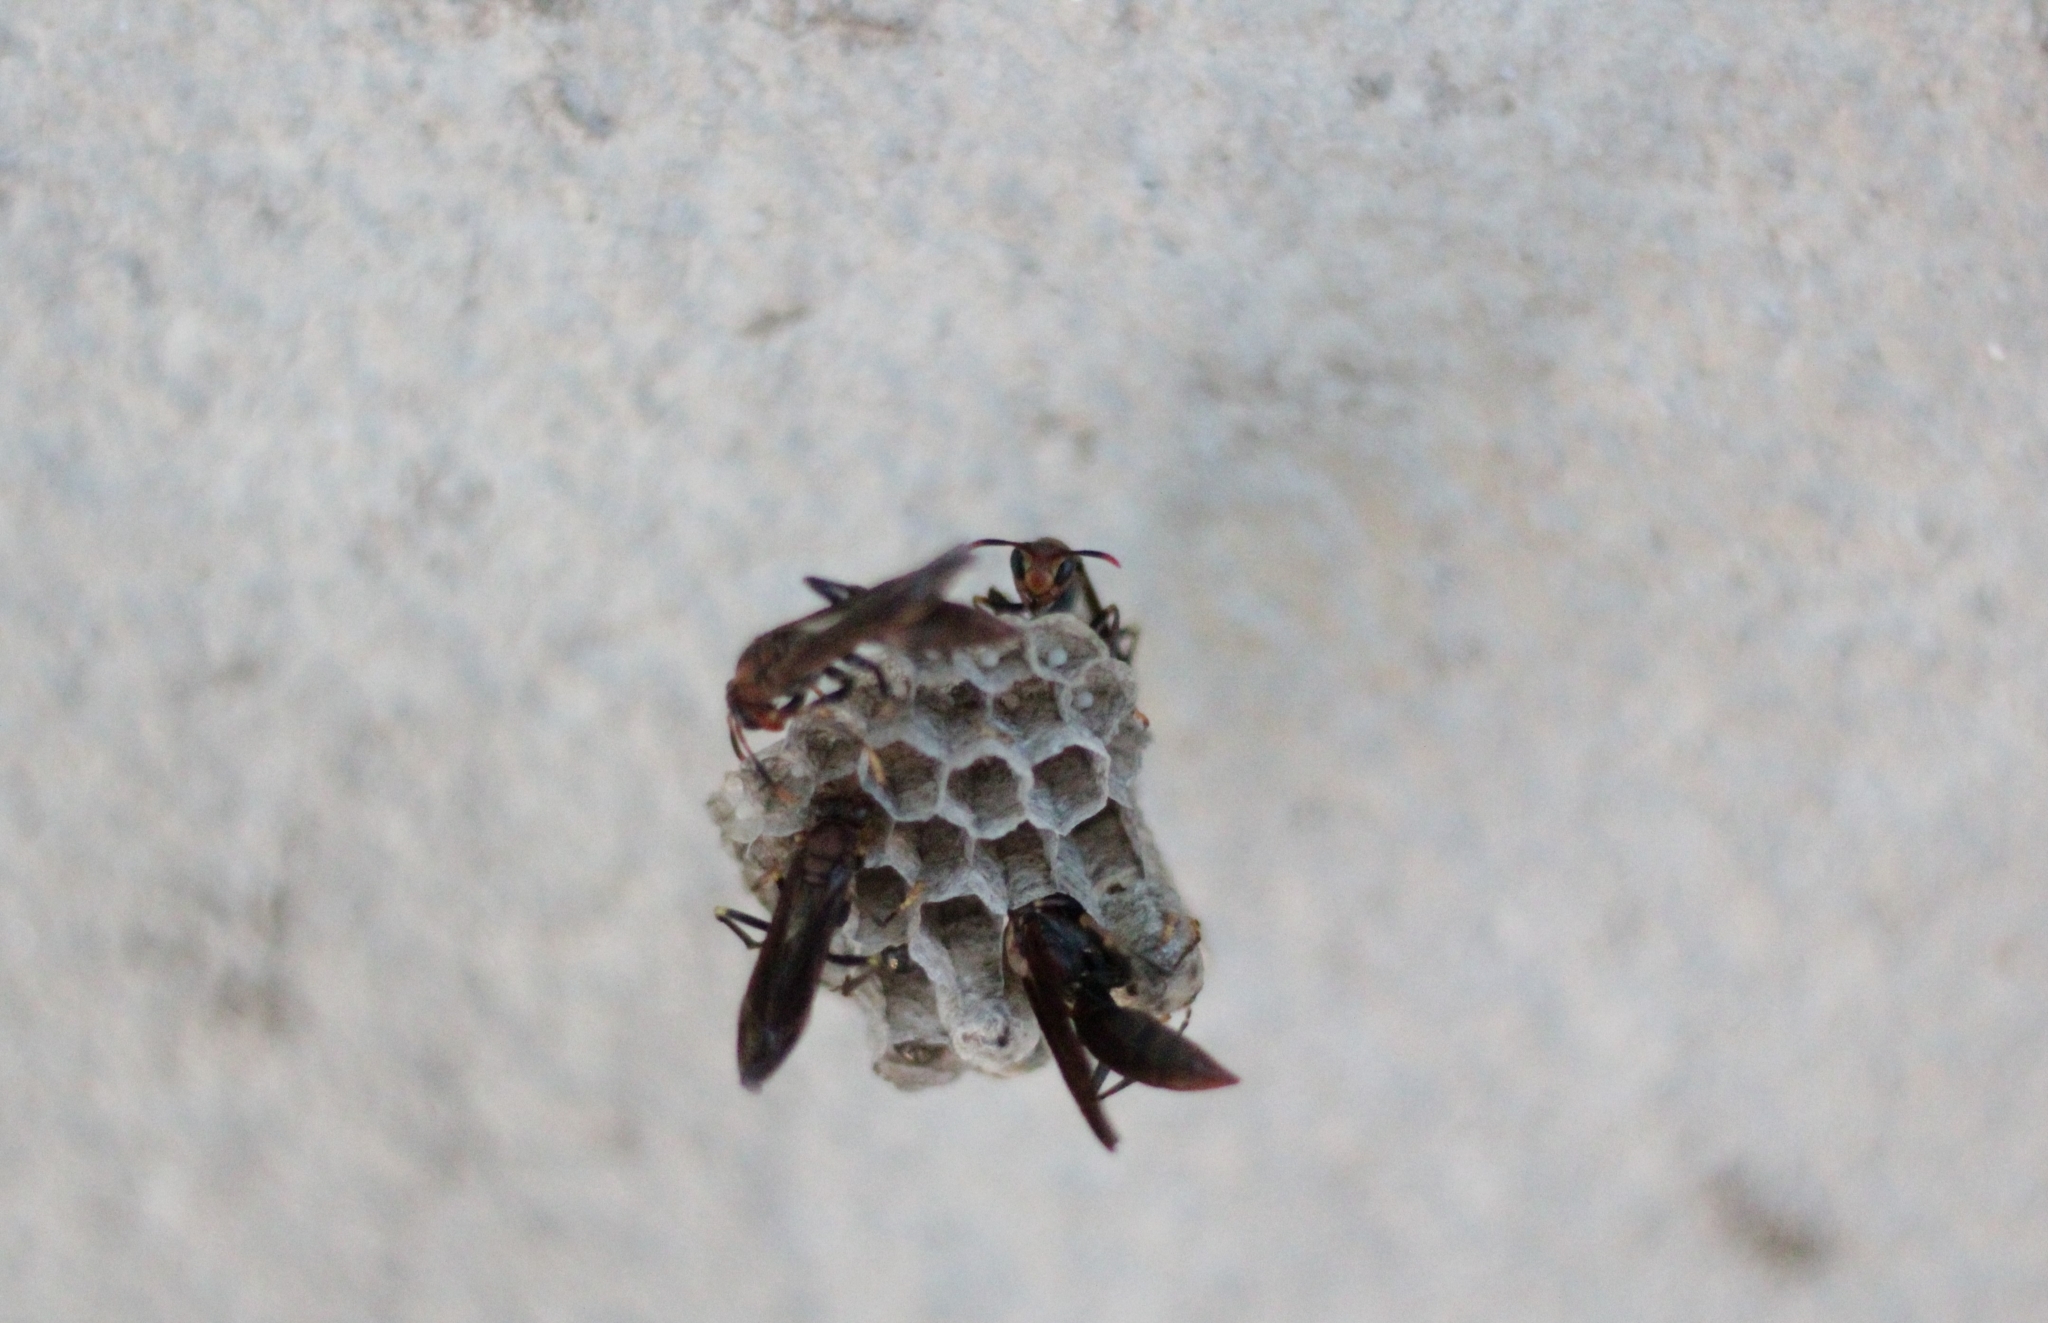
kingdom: Animalia
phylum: Arthropoda
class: Insecta
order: Hymenoptera
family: Pompilidae
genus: Aphanilopterus
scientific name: Aphanilopterus
